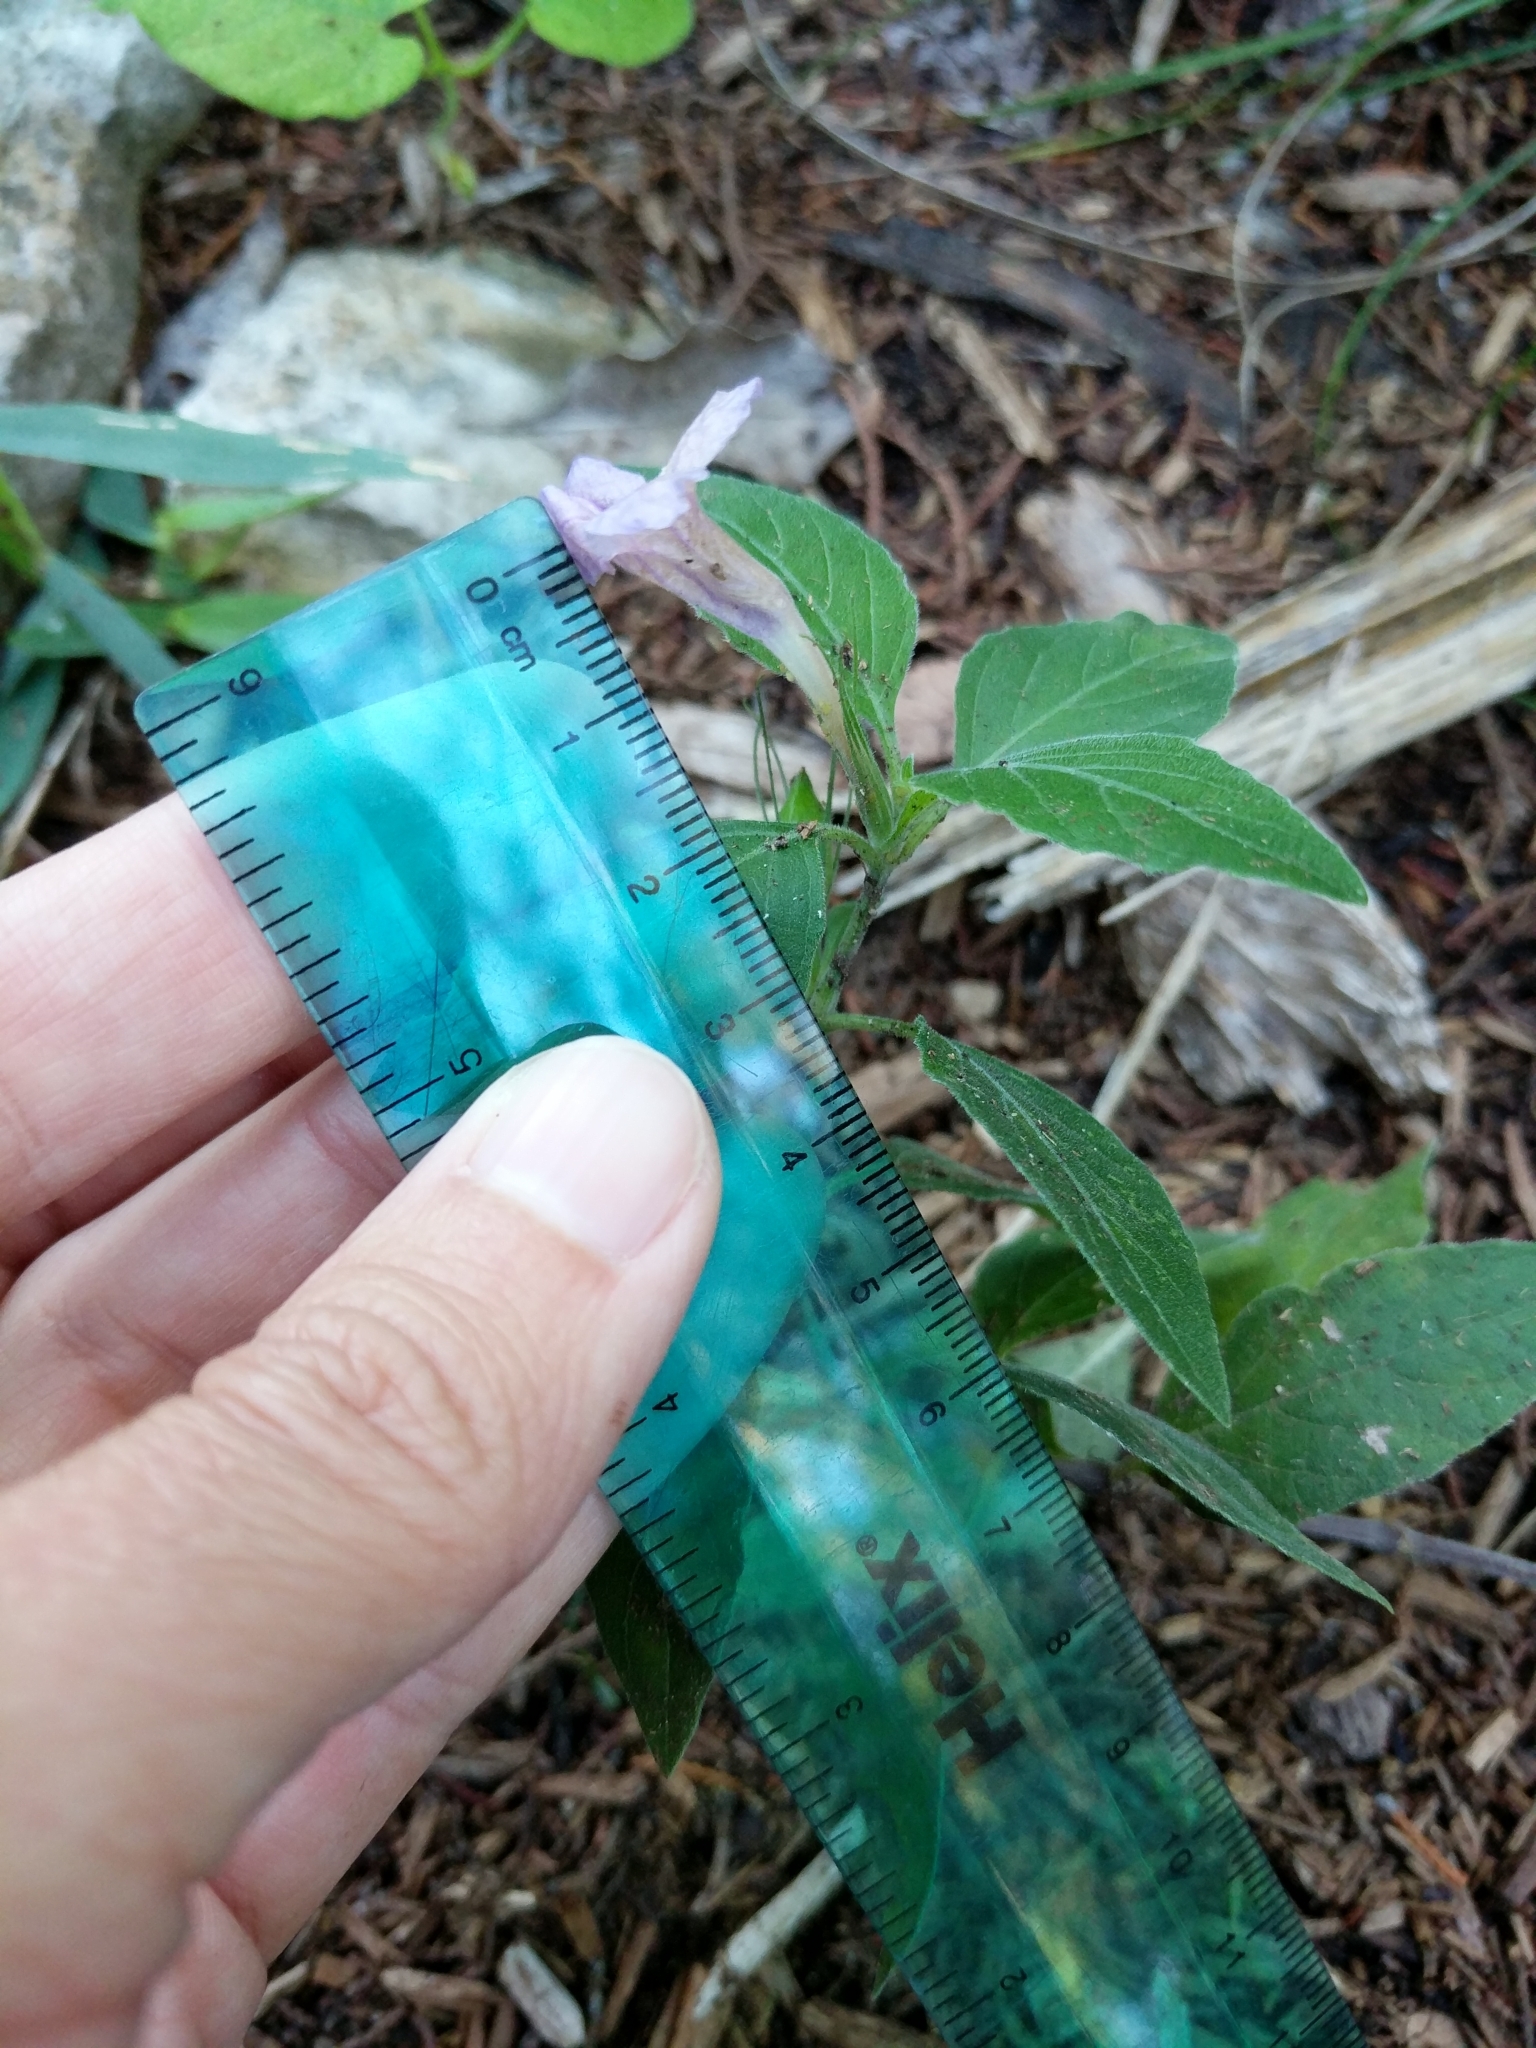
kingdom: Plantae
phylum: Tracheophyta
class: Magnoliopsida
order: Lamiales
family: Acanthaceae
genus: Ruellia
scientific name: Ruellia drummondiana
